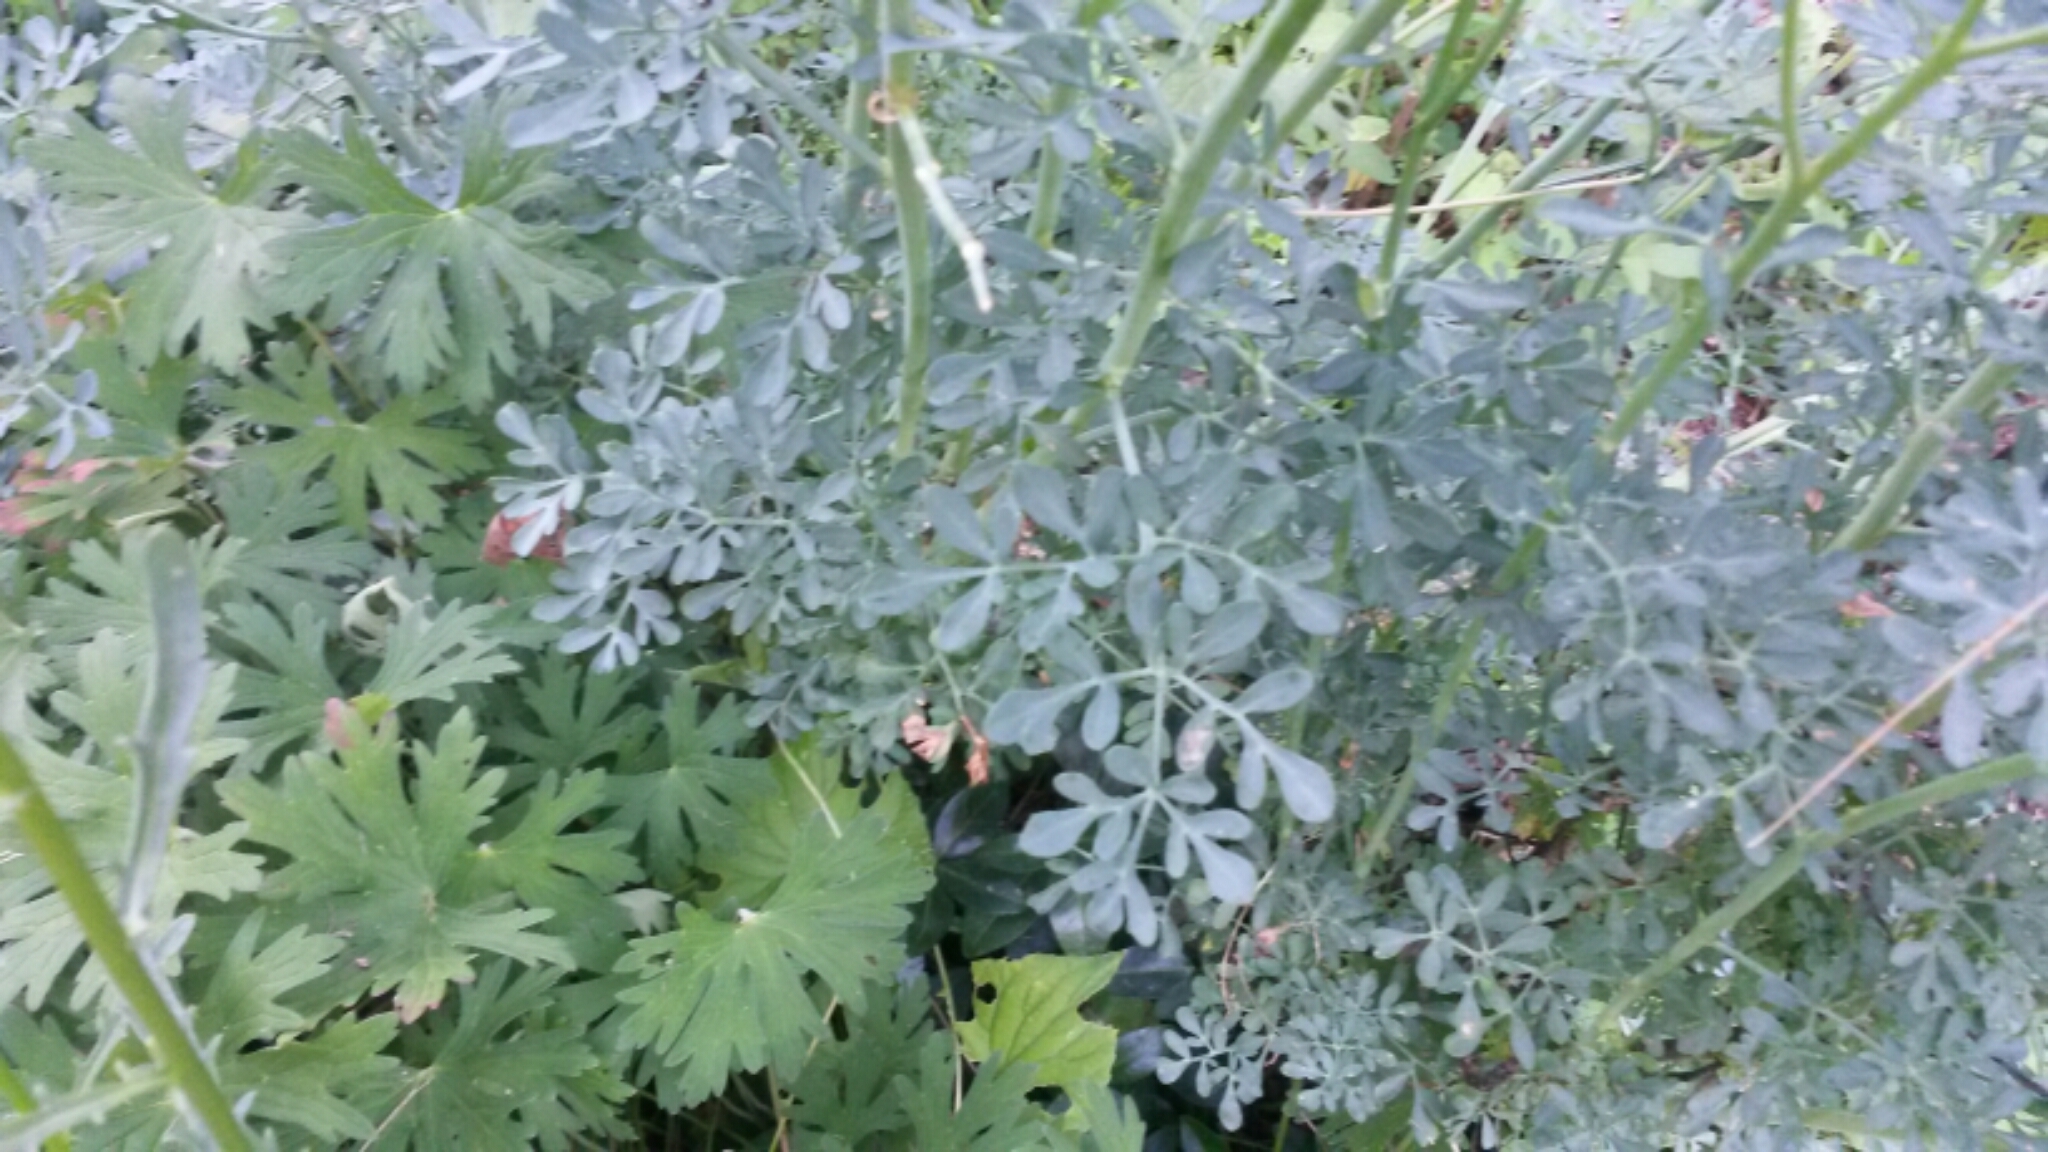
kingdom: Plantae
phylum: Tracheophyta
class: Magnoliopsida
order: Sapindales
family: Rutaceae
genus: Ruta
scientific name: Ruta graveolens
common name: Common rue
